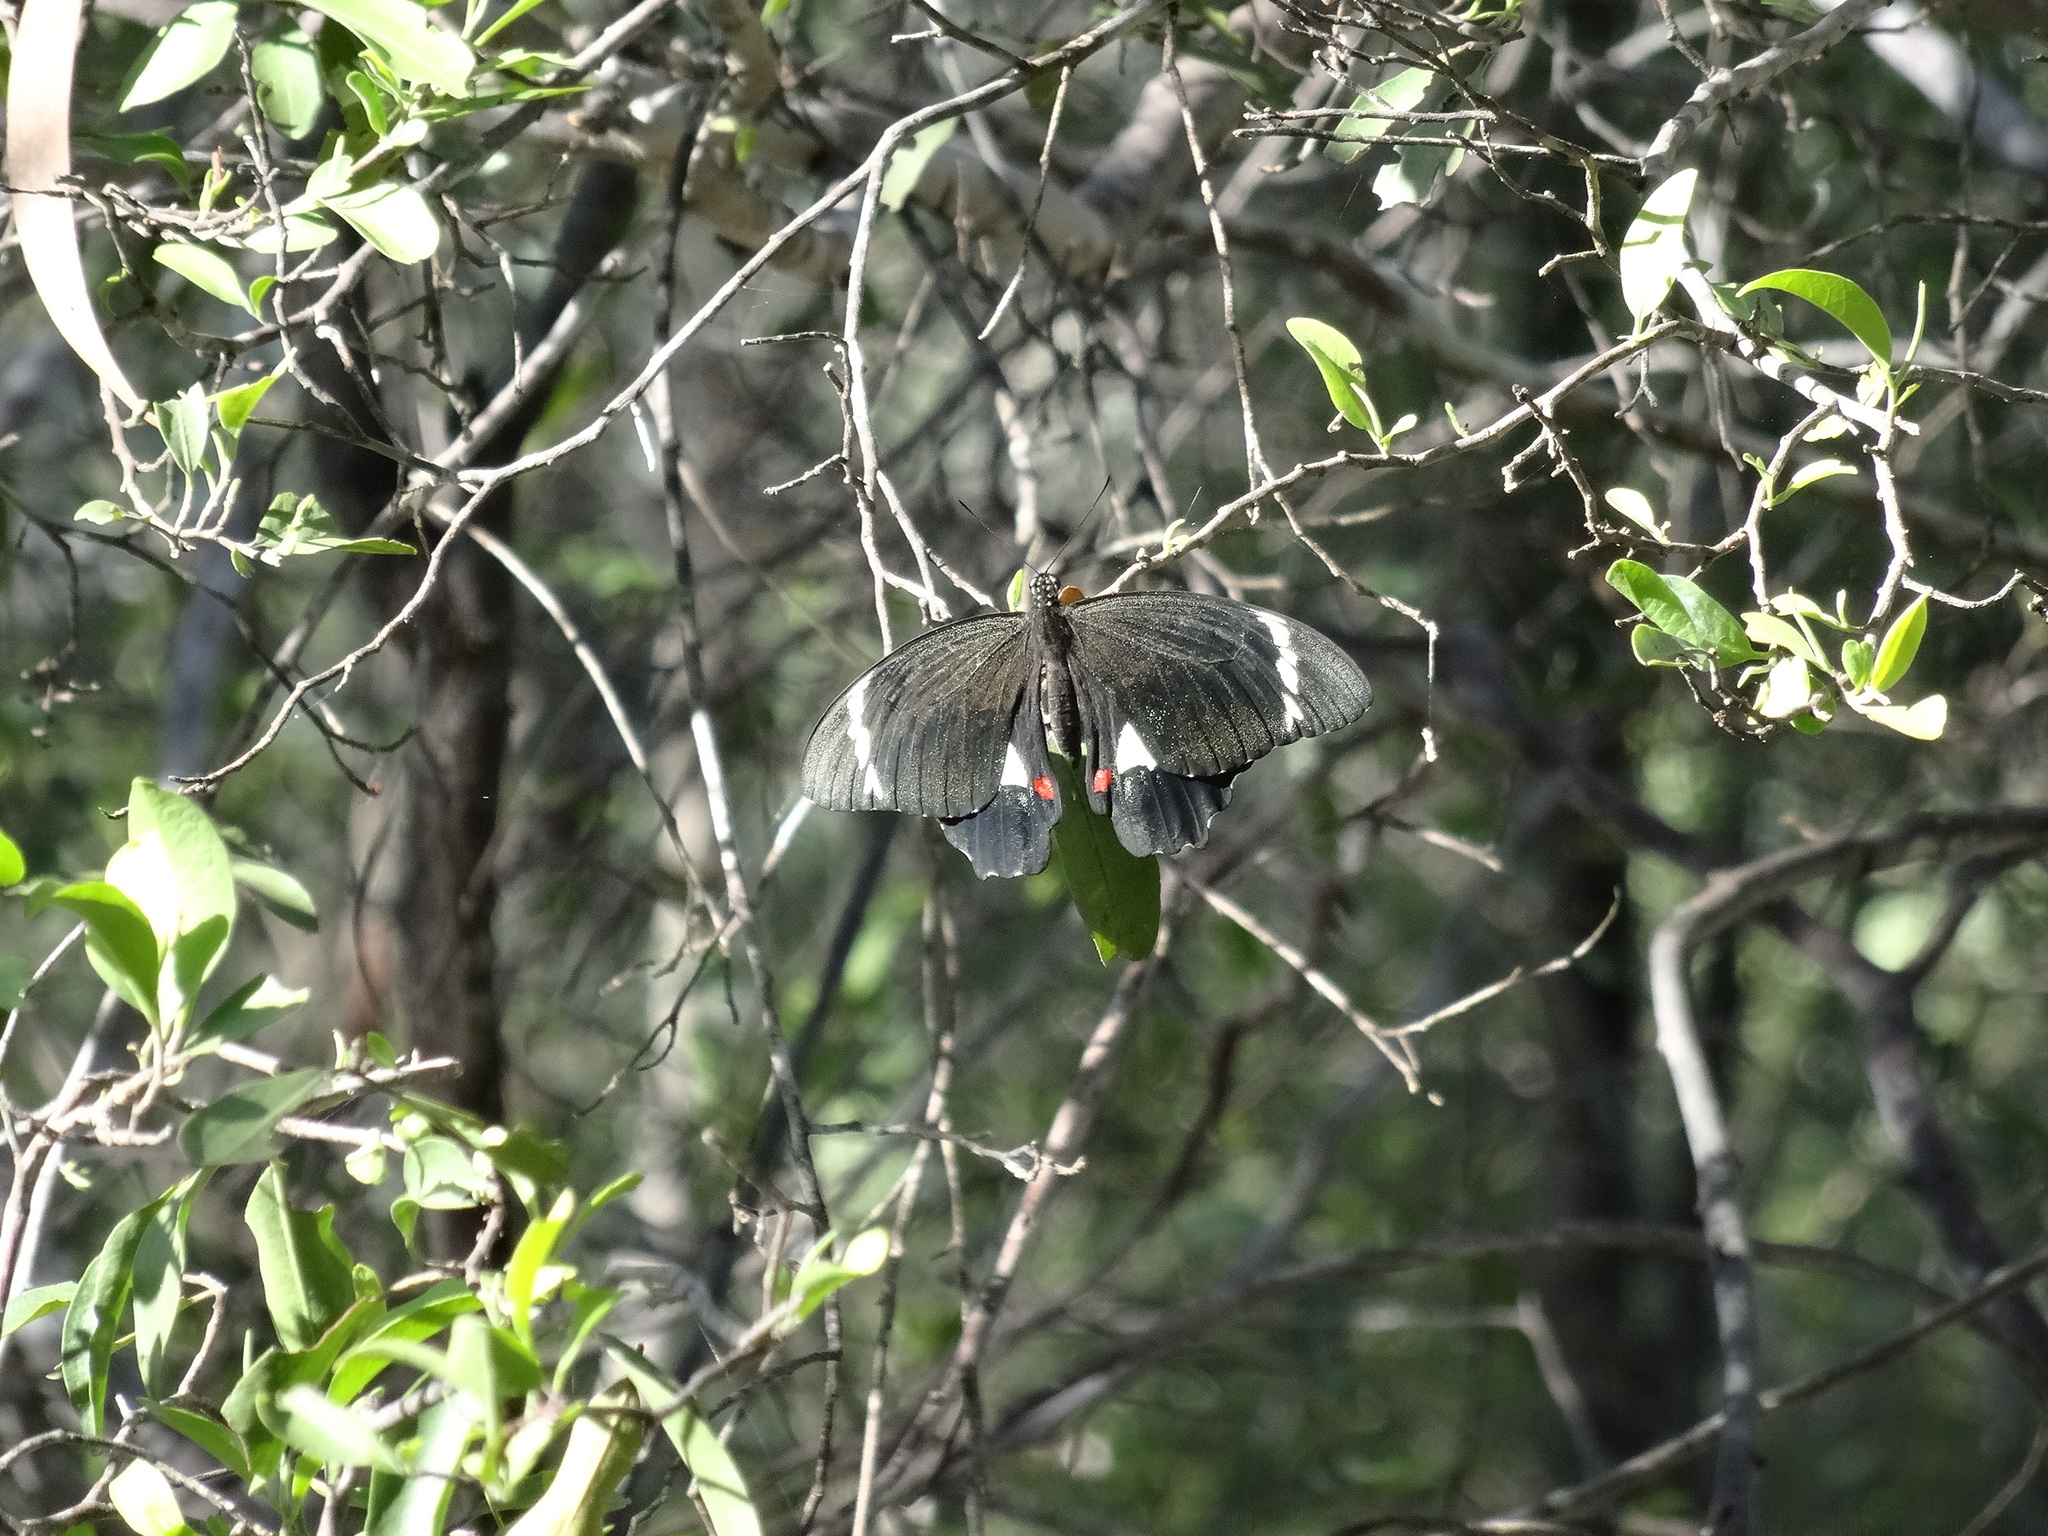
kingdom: Animalia
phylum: Arthropoda
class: Insecta
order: Lepidoptera
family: Papilionidae
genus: Papilio
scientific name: Papilio aegeus
